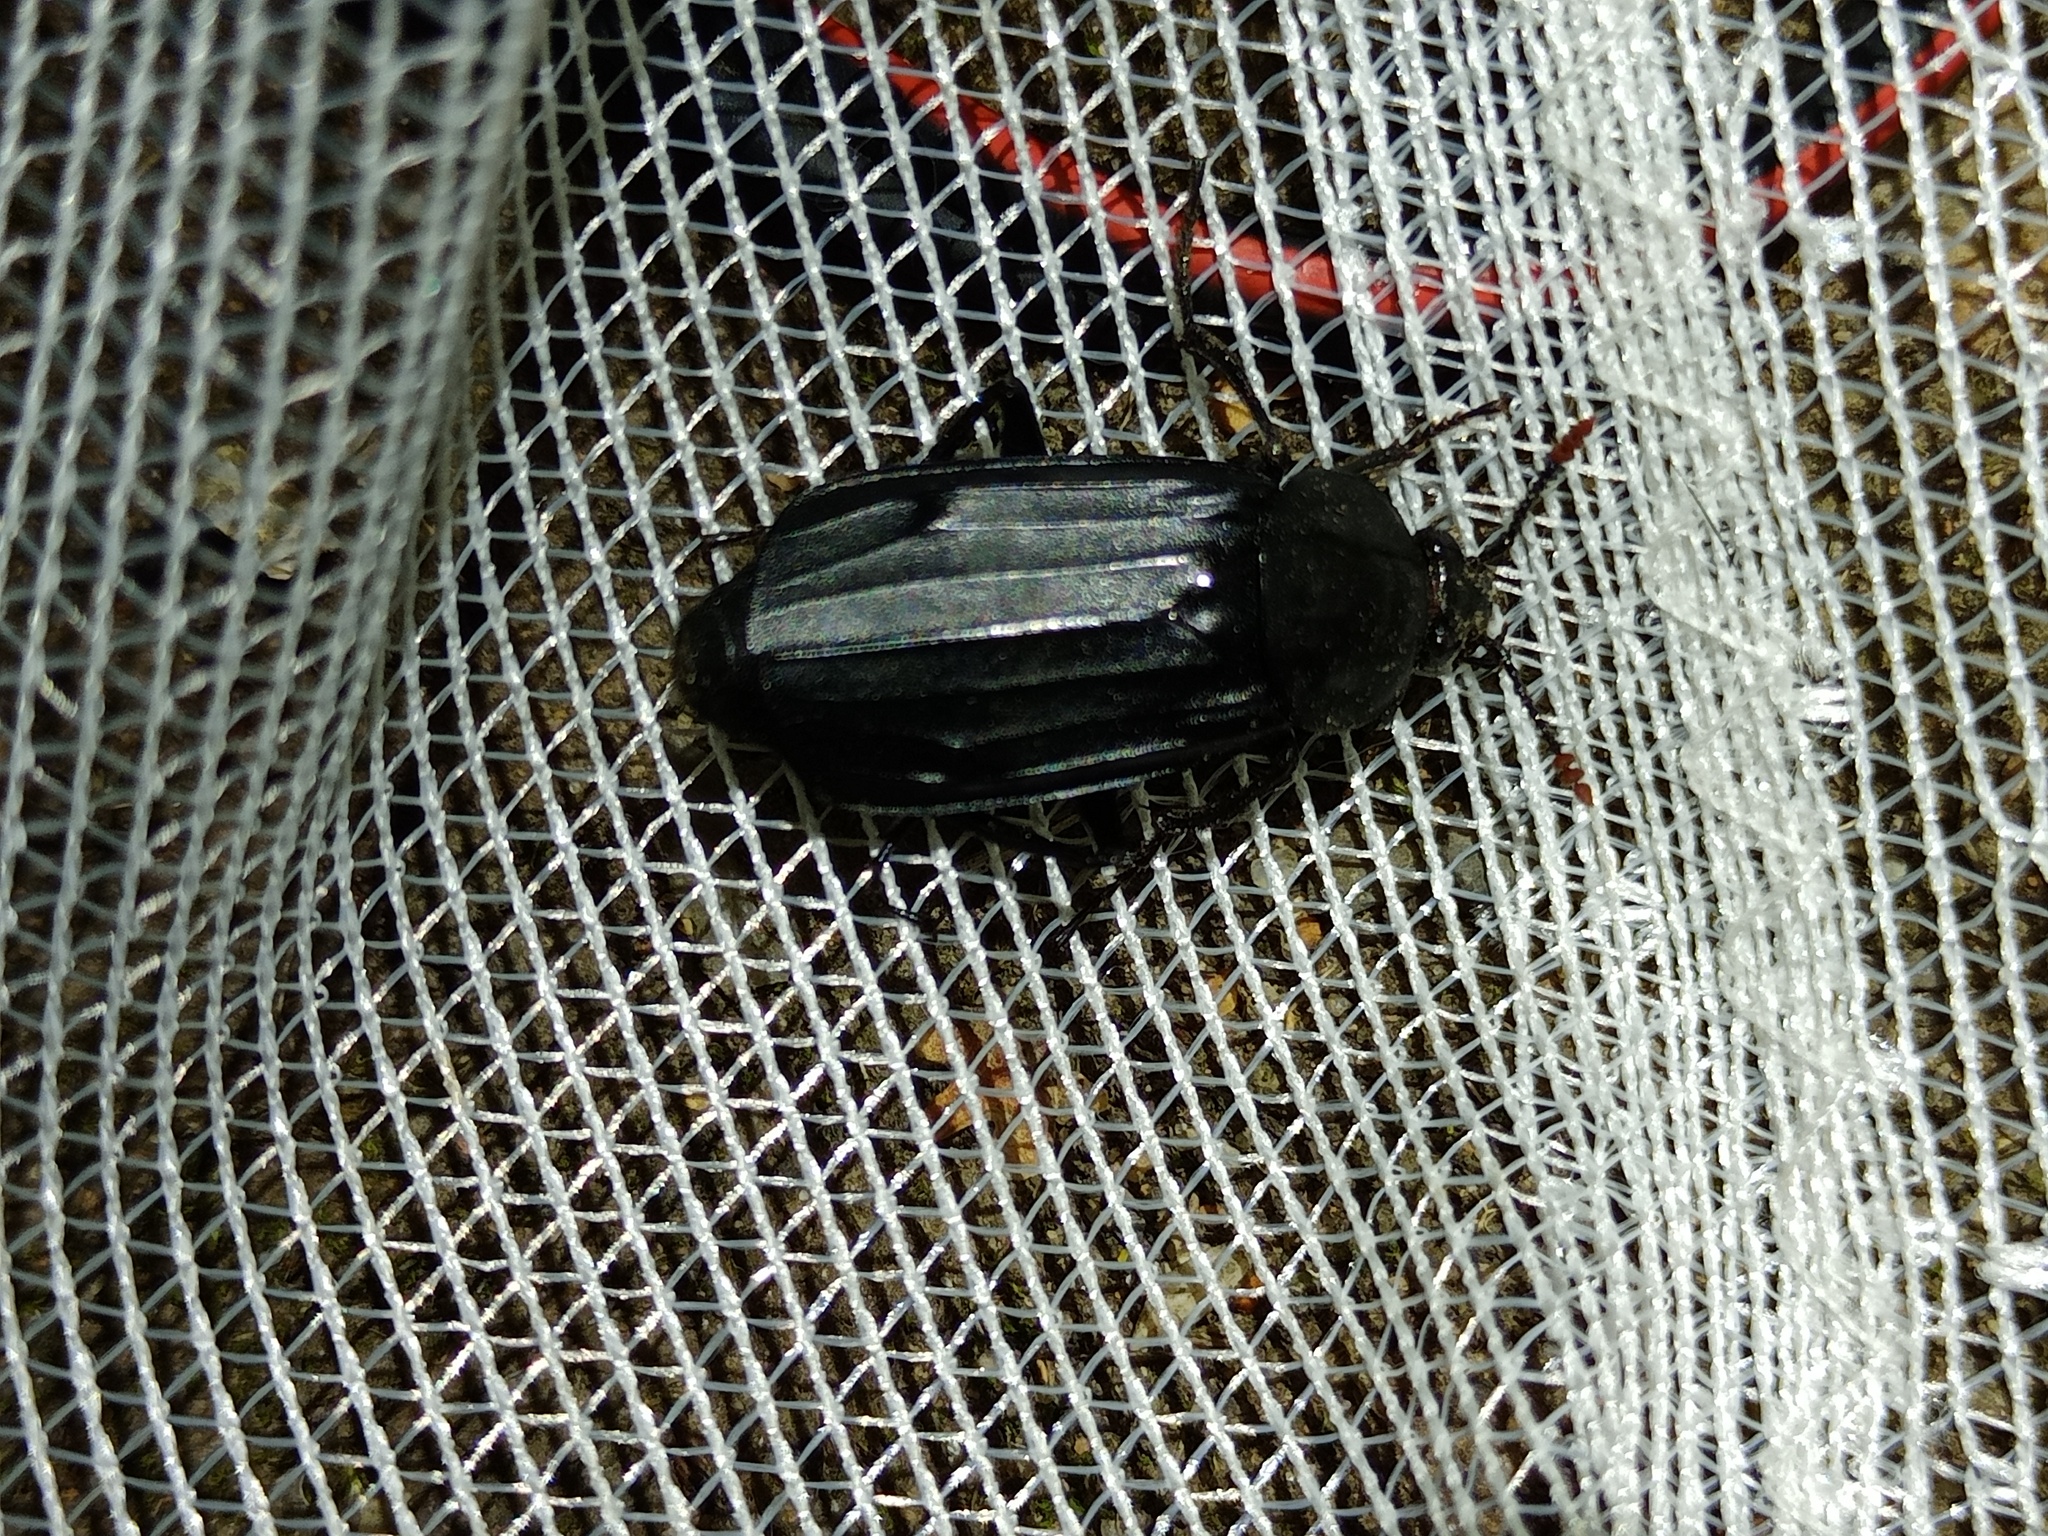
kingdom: Animalia
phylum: Arthropoda
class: Insecta
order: Coleoptera
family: Staphylinidae
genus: Necrodes
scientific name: Necrodes littoralis
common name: Shore sexton beetle
